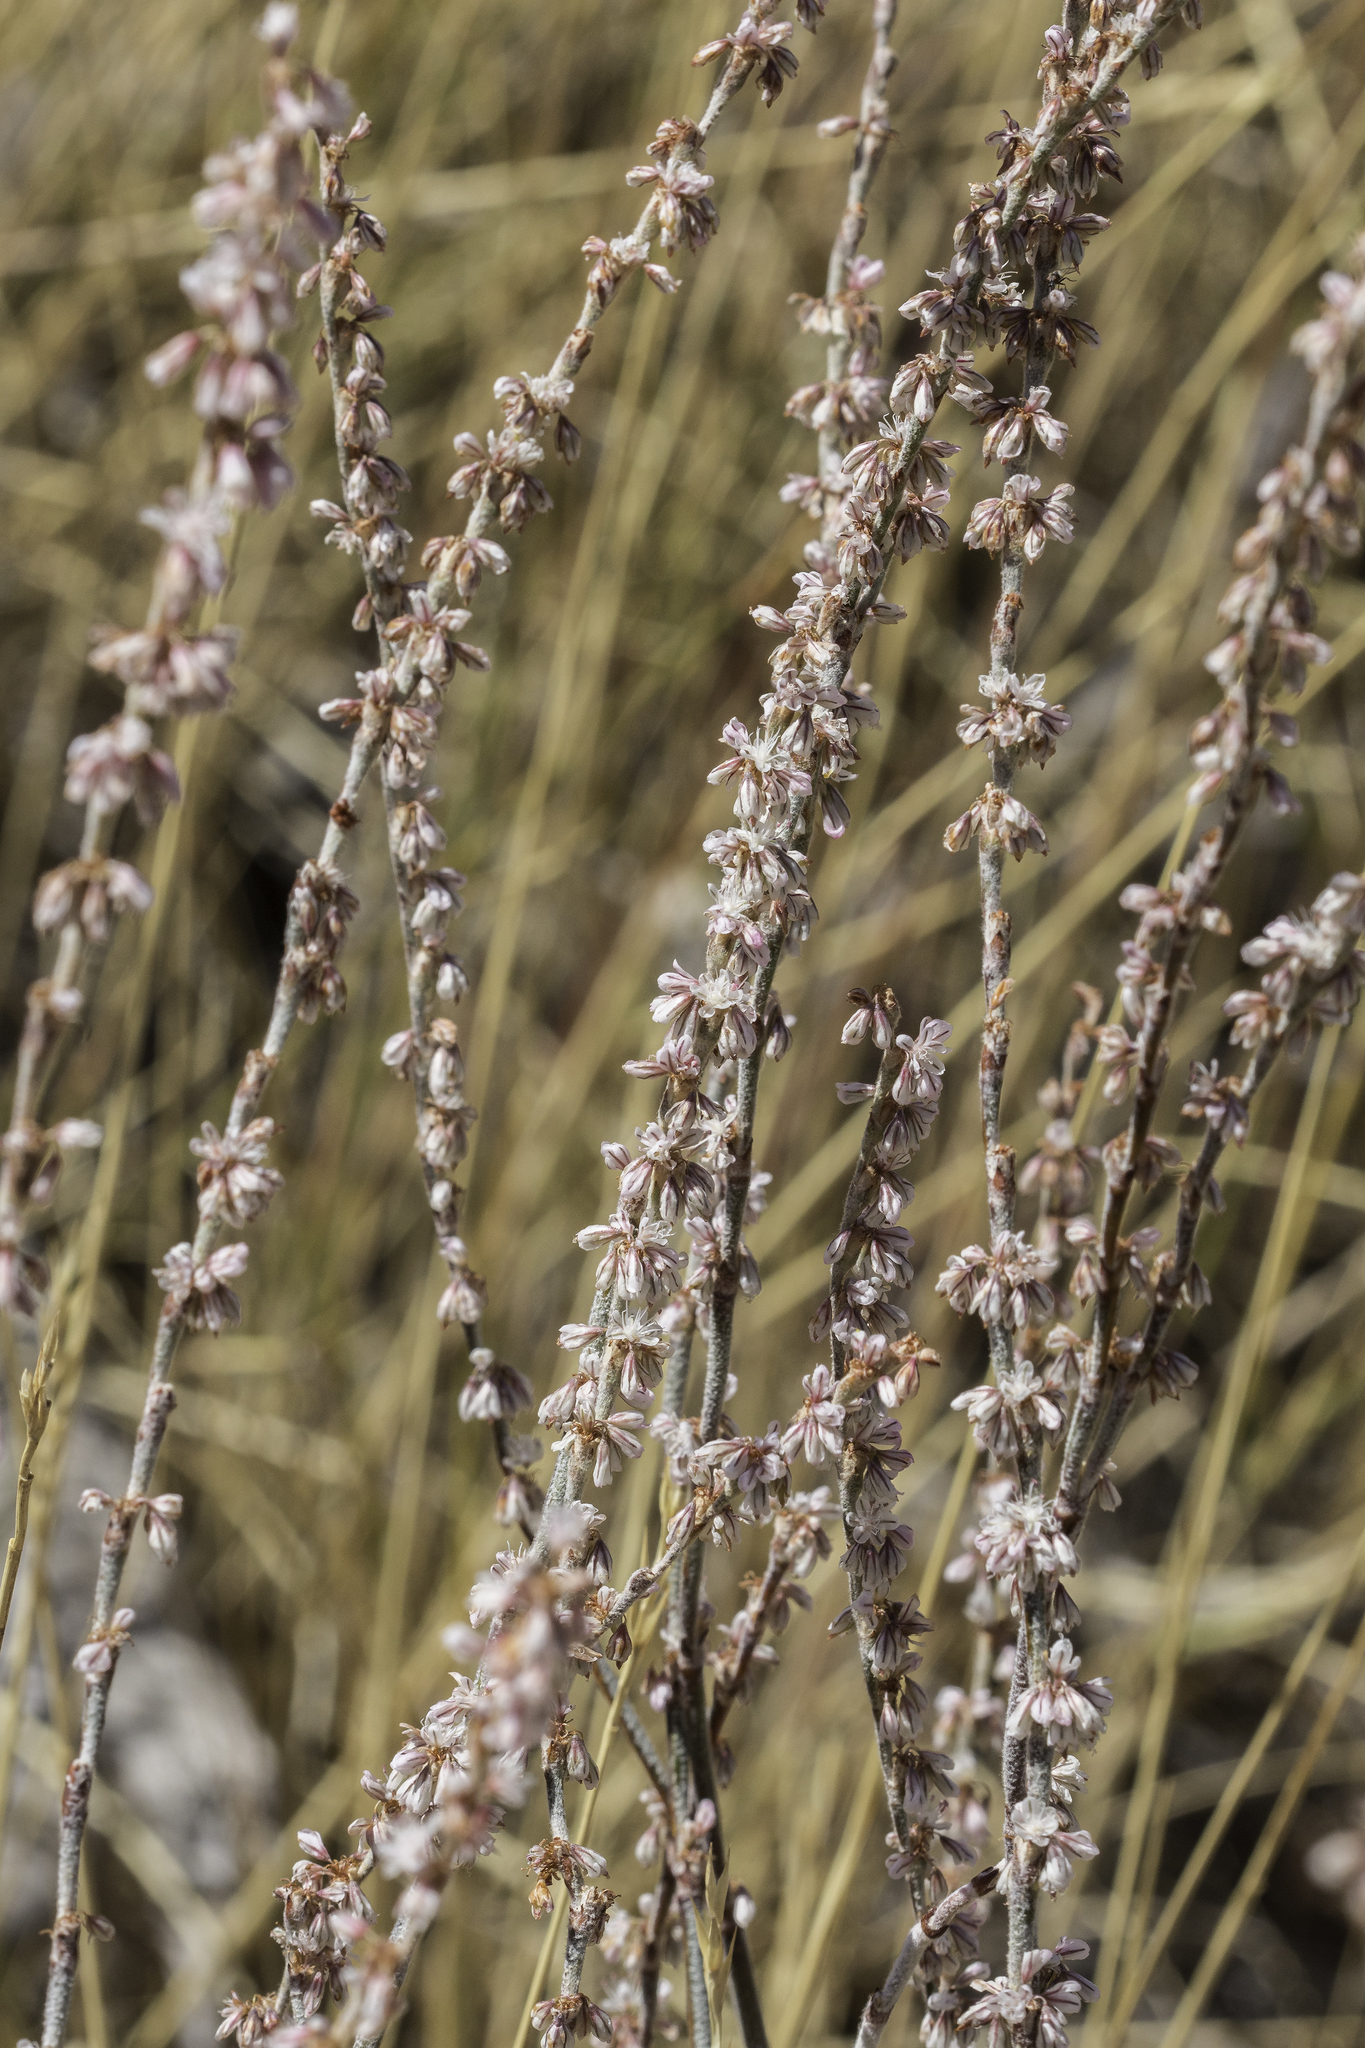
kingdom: Plantae
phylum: Tracheophyta
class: Magnoliopsida
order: Caryophyllales
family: Polygonaceae
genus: Eriogonum
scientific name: Eriogonum racemosum
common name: Redroot wild buckwheat
